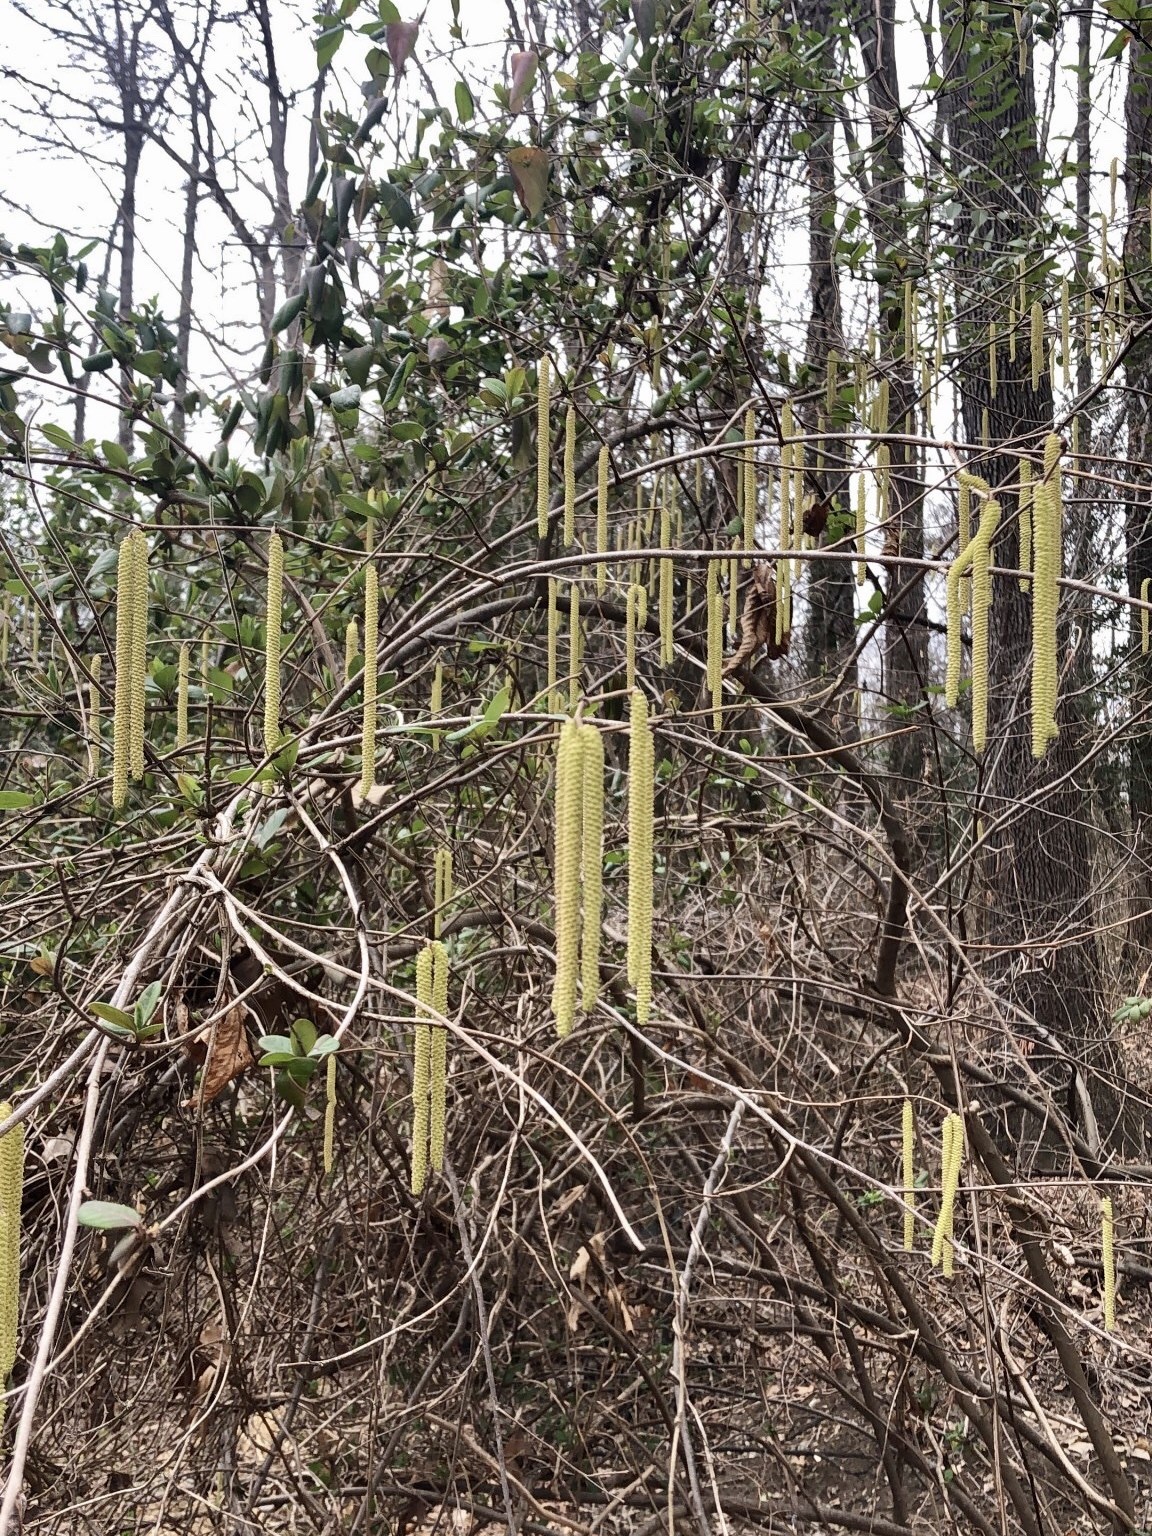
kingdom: Plantae
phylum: Tracheophyta
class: Magnoliopsida
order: Fagales
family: Betulaceae
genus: Corylus
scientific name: Corylus americana
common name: American hazel
